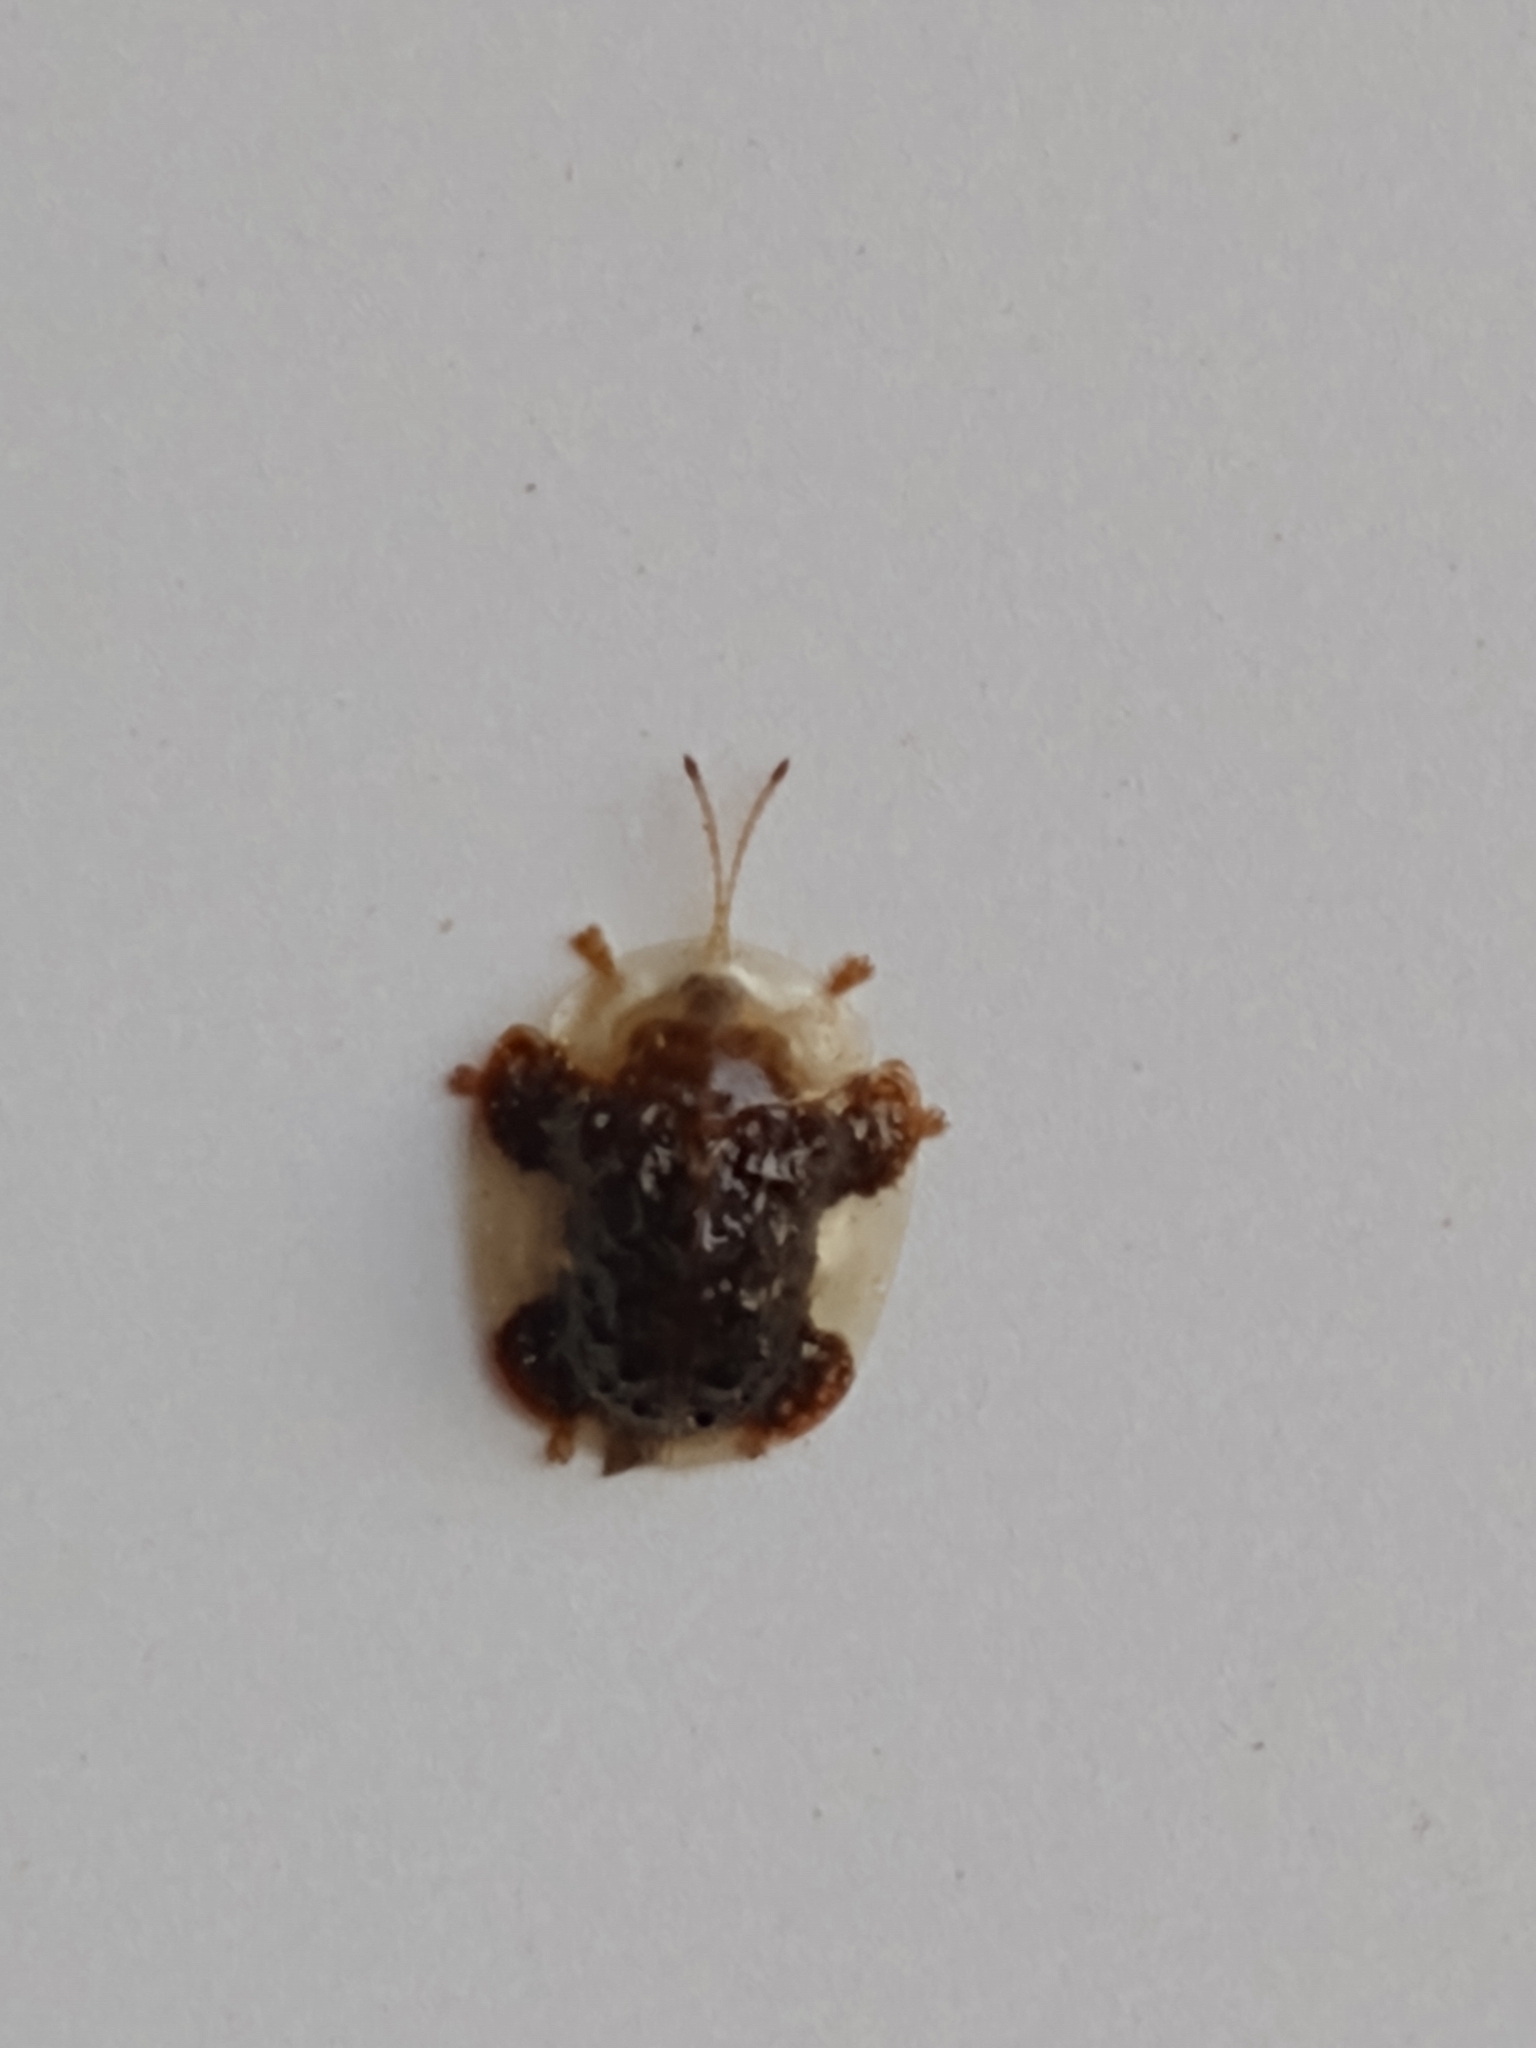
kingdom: Animalia
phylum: Arthropoda
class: Insecta
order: Coleoptera
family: Chrysomelidae
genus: Helocassis
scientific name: Helocassis clavata
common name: Clavate tortoise beetle
